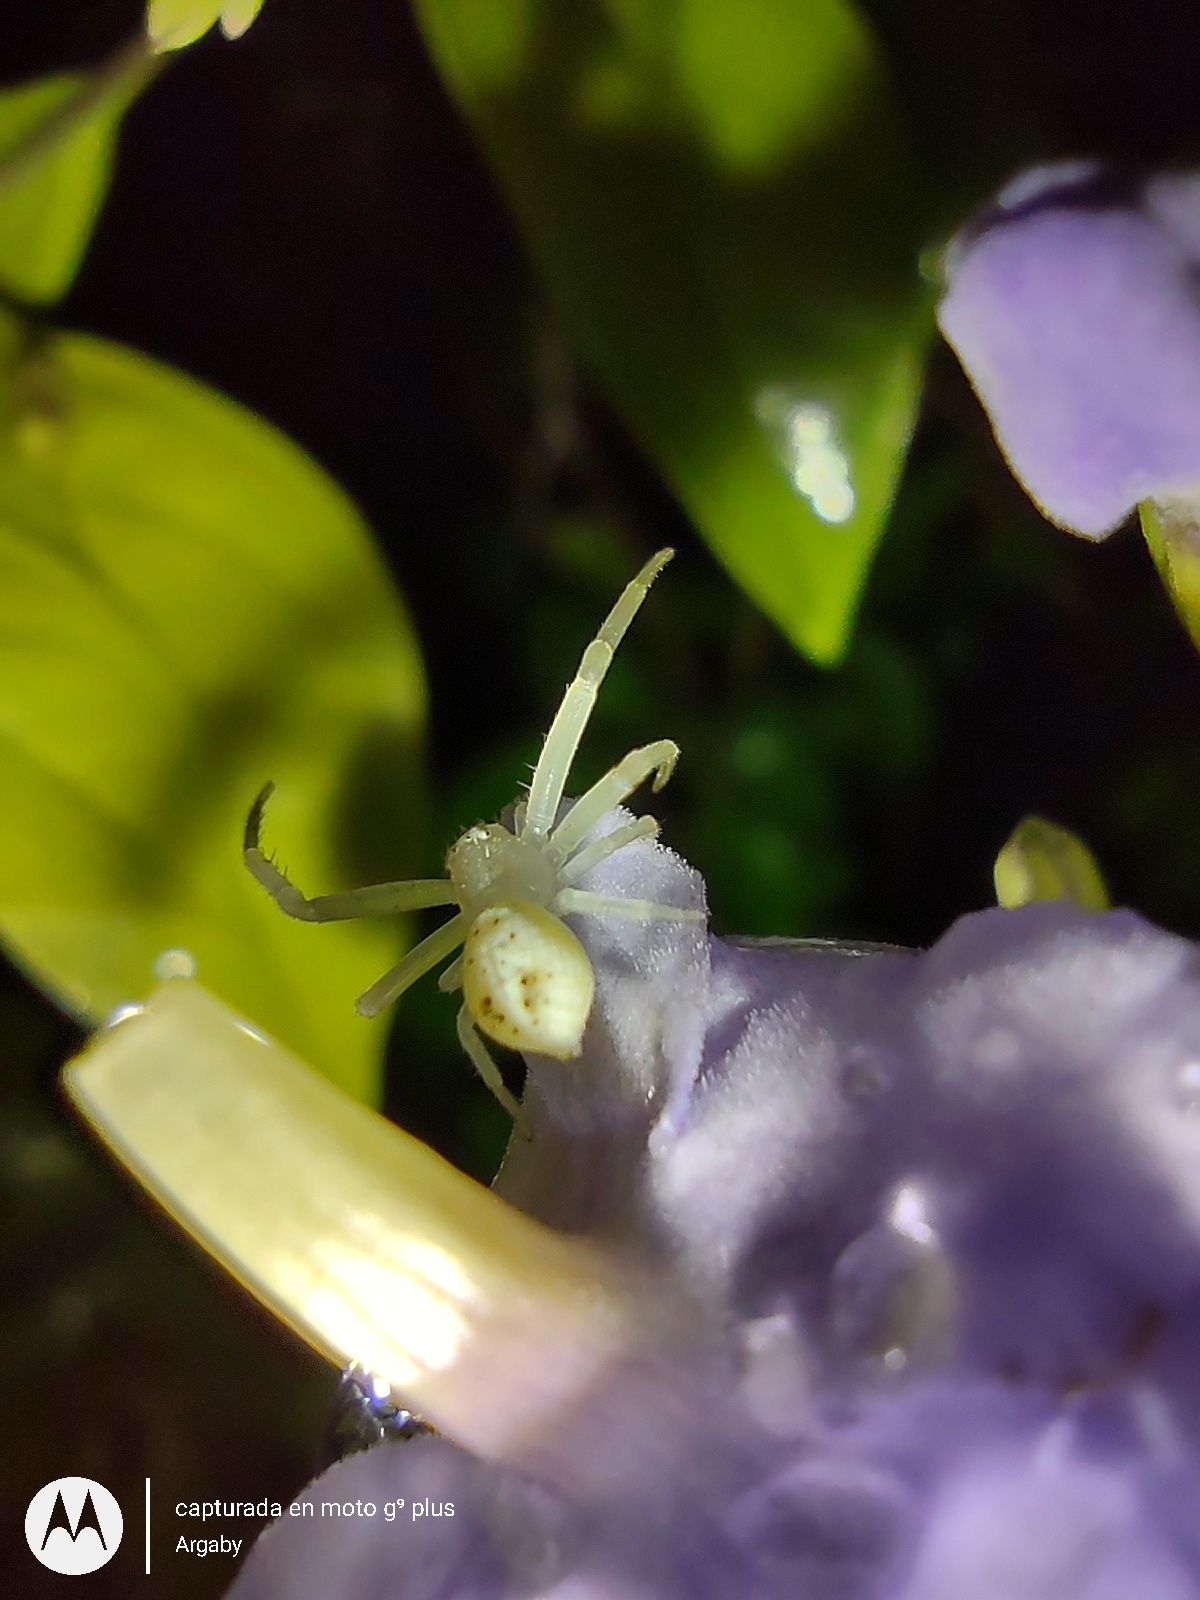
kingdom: Animalia
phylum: Arthropoda
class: Arachnida
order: Araneae
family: Thomisidae
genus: Misumenops
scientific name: Misumenops
